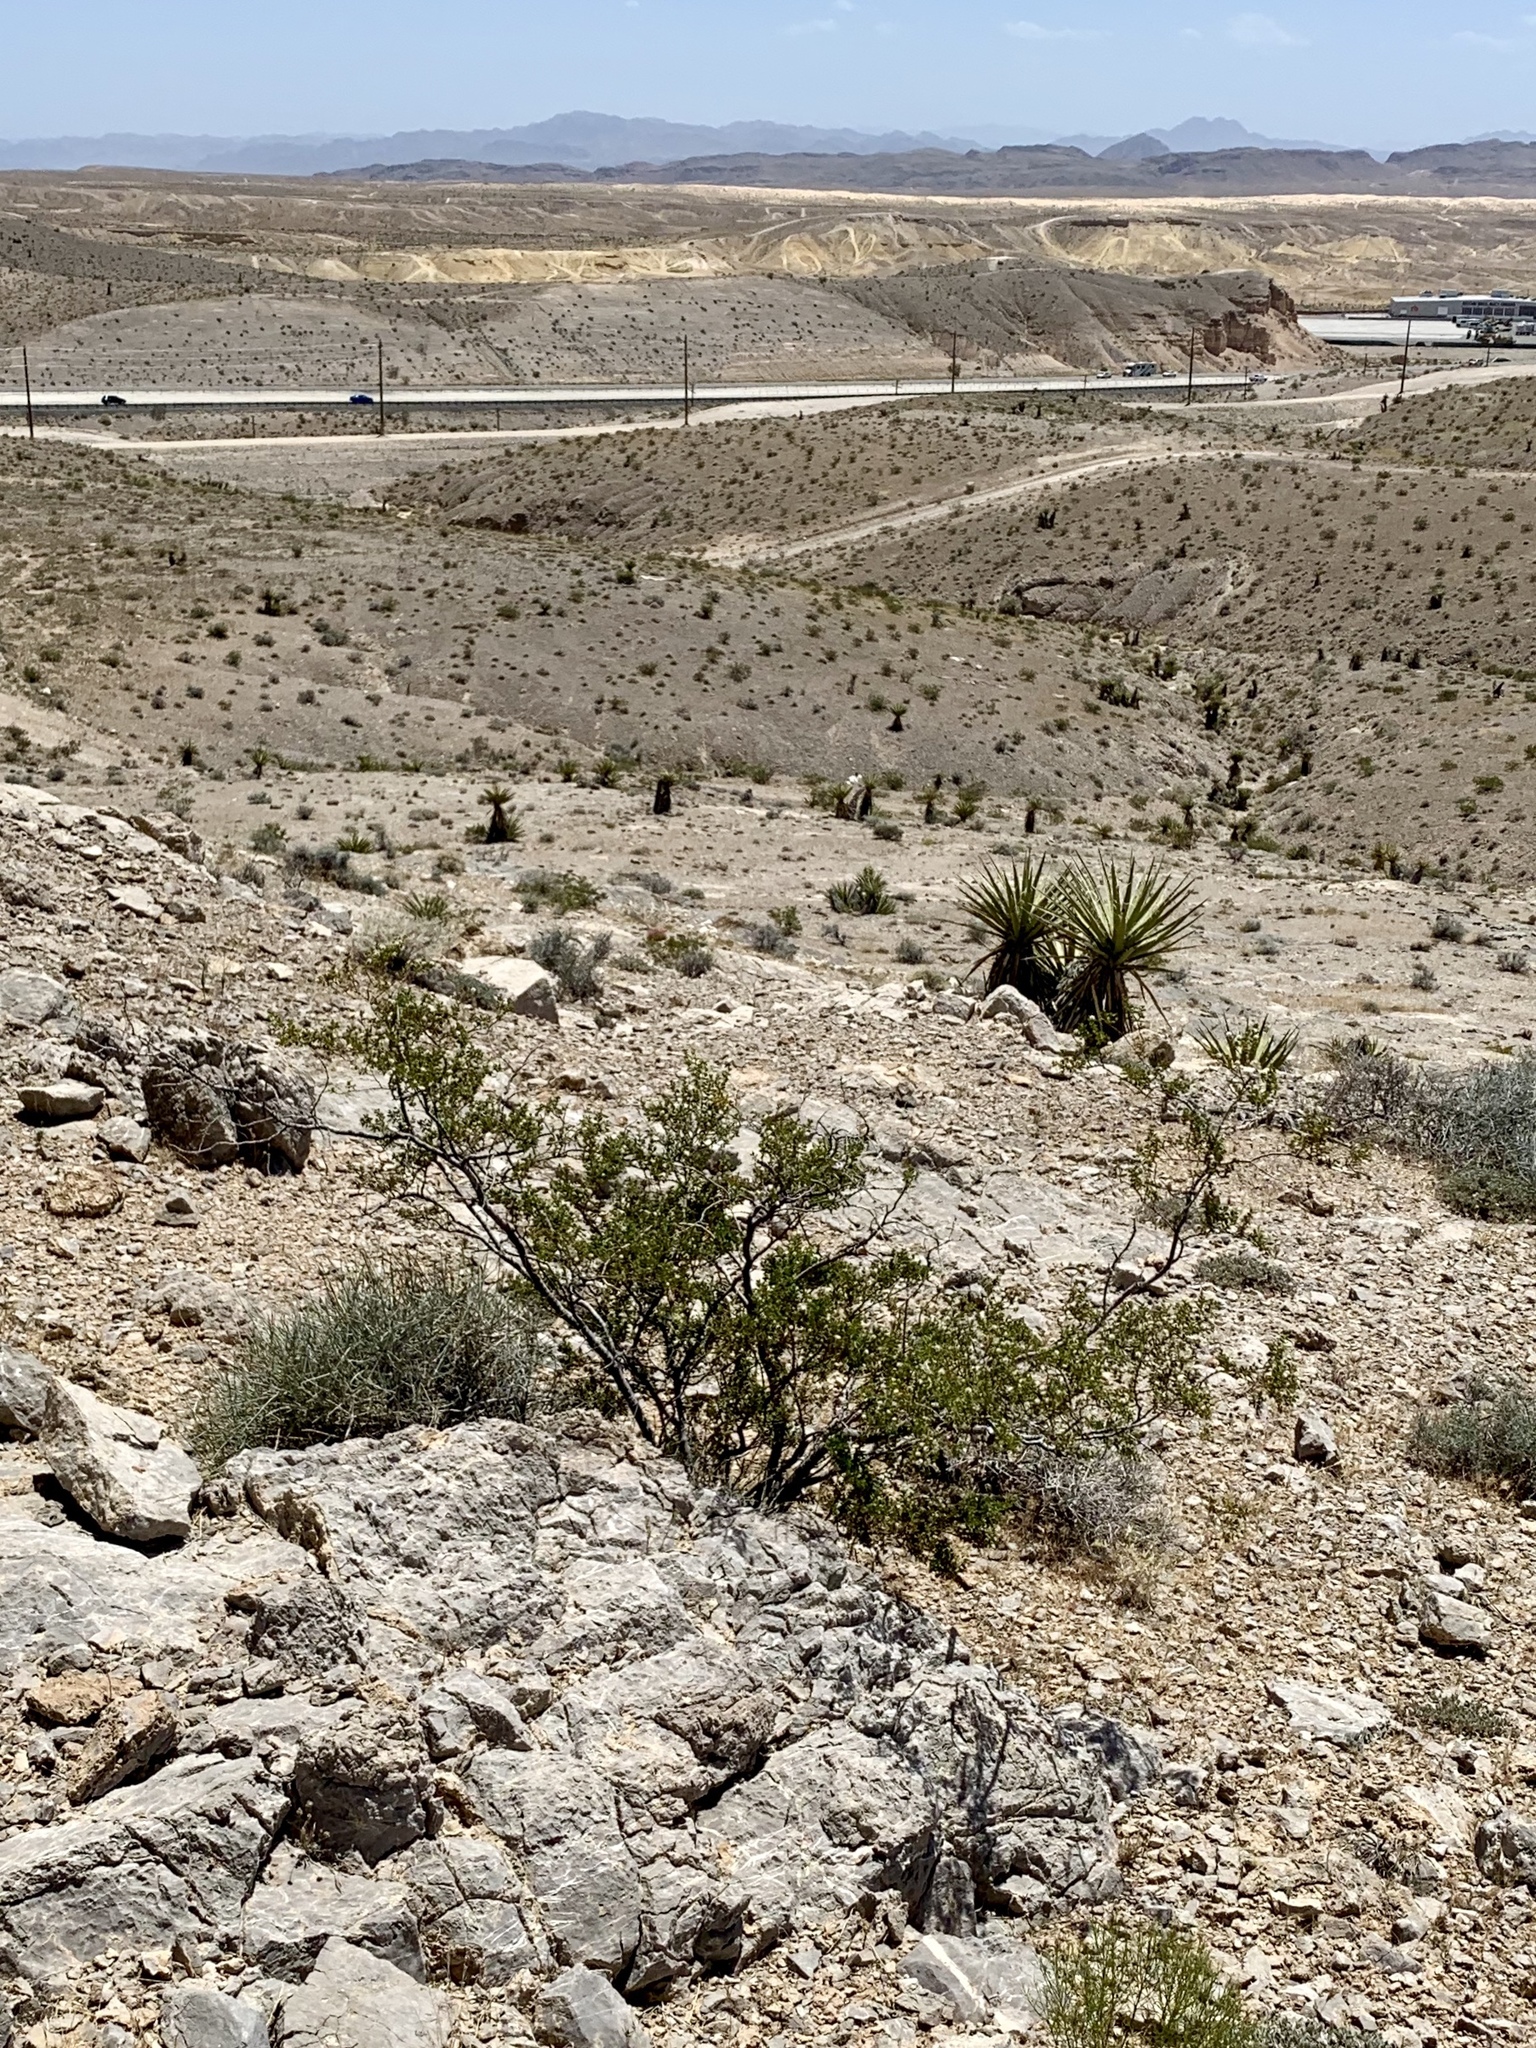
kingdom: Plantae
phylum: Tracheophyta
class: Magnoliopsida
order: Zygophyllales
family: Zygophyllaceae
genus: Larrea
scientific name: Larrea tridentata
